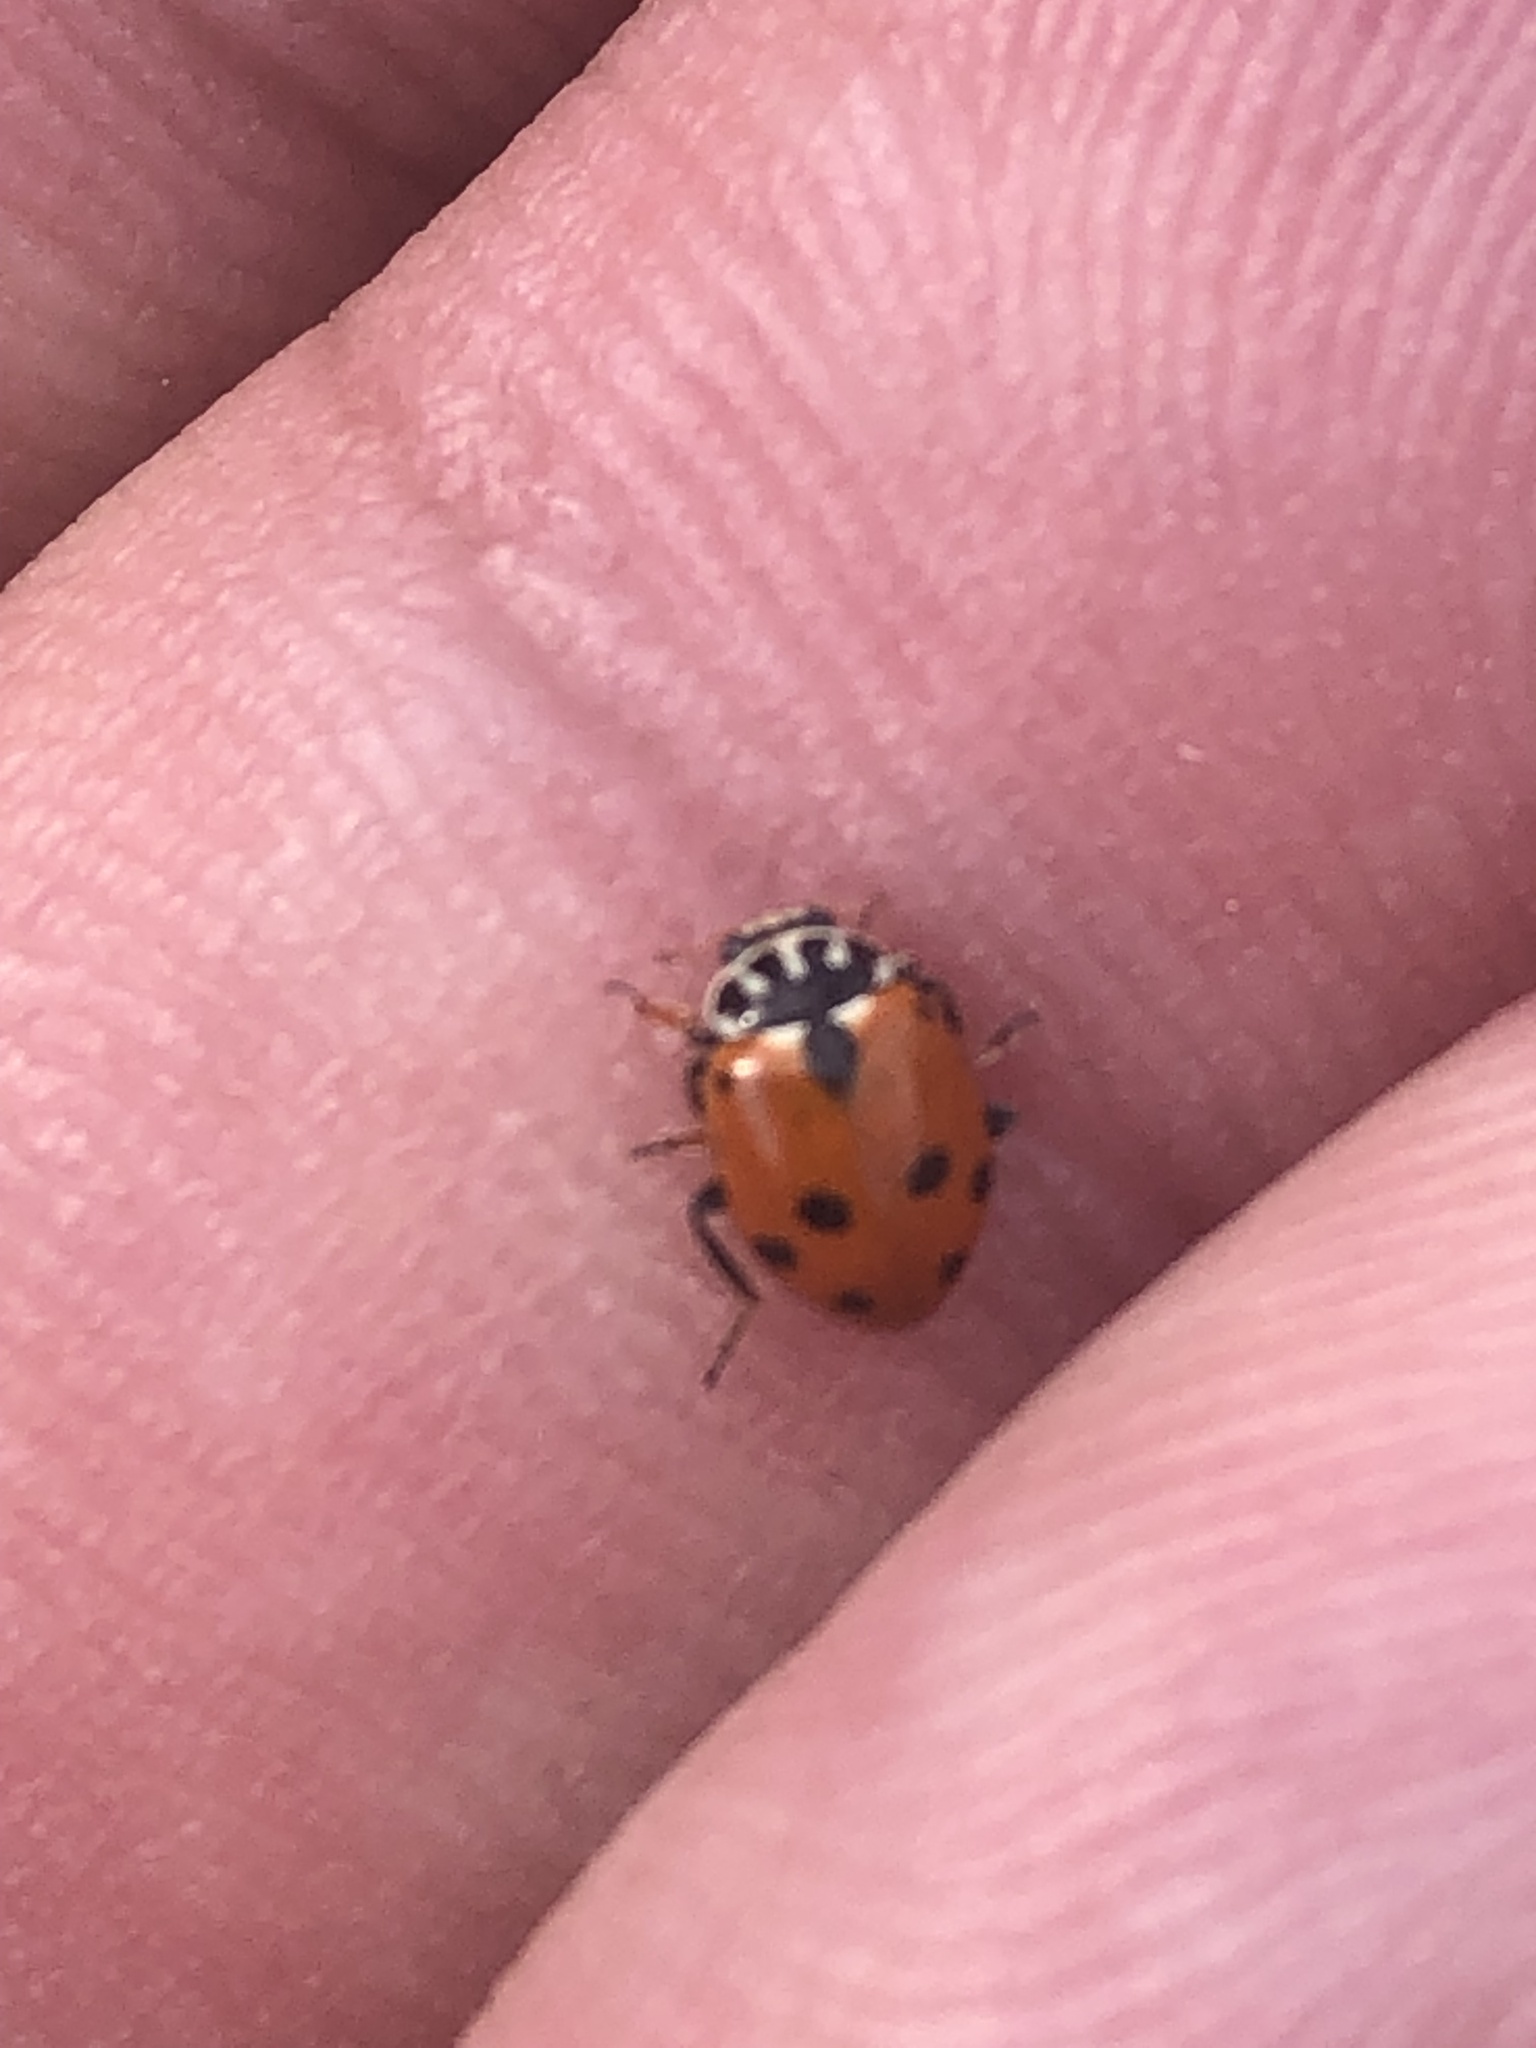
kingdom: Animalia
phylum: Arthropoda
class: Insecta
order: Coleoptera
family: Coccinellidae
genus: Hippodamia
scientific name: Hippodamia variegata
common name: Ladybird beetle
